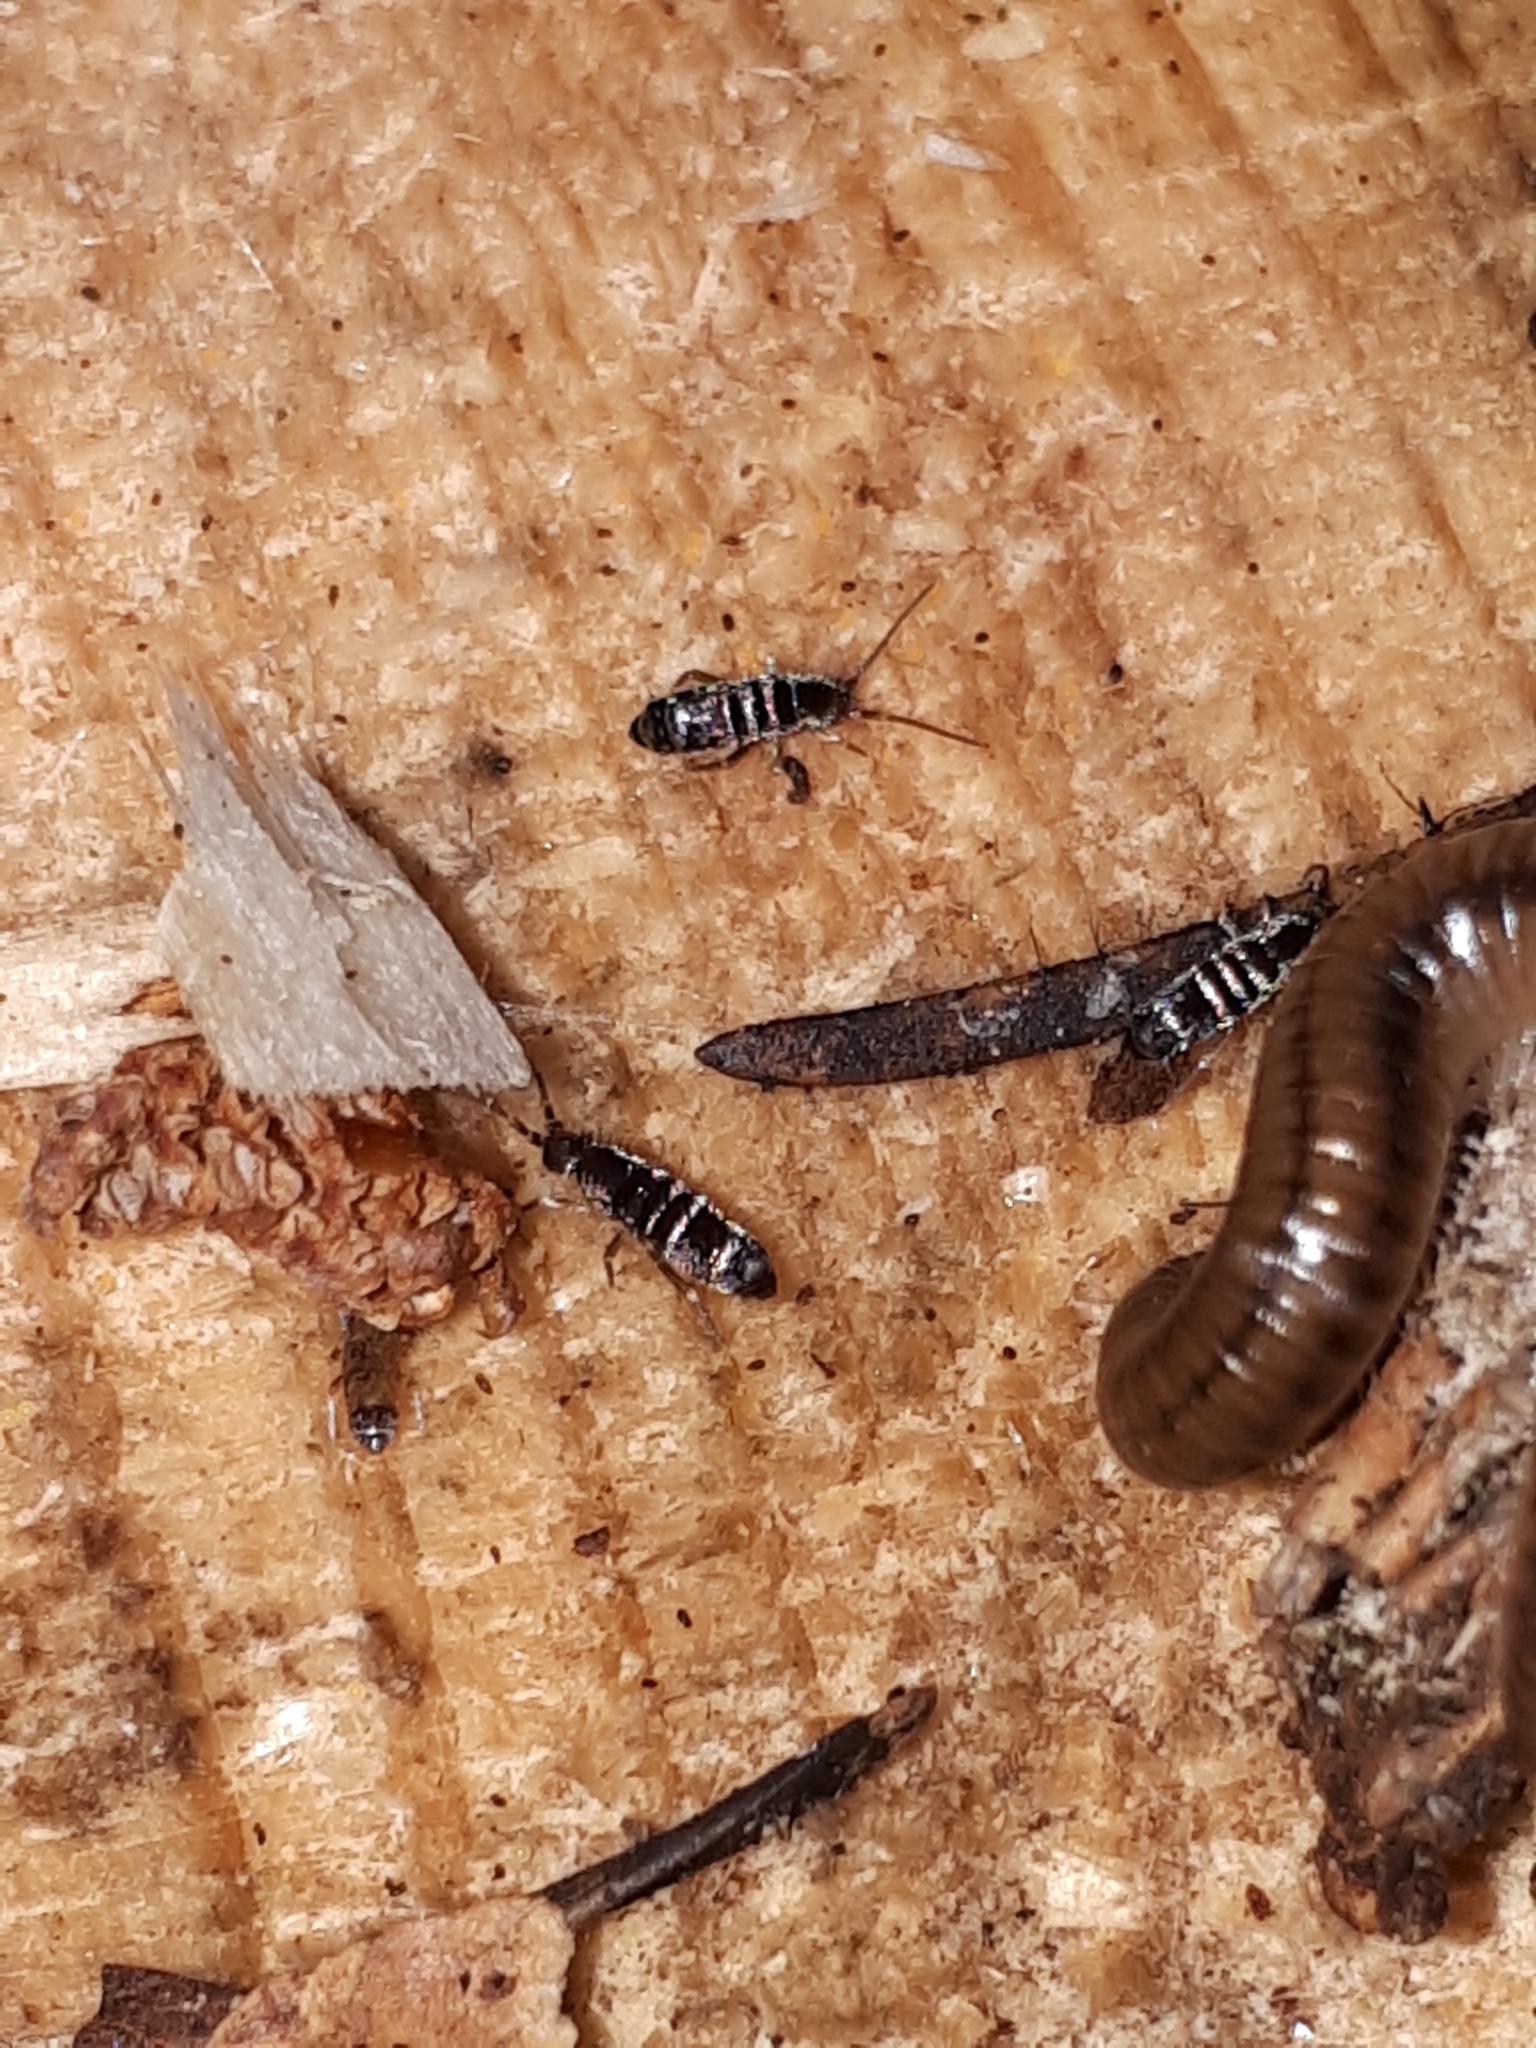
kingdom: Animalia
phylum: Arthropoda
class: Collembola
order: Entomobryomorpha
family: Tomoceridae
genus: Tomocerus
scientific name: Tomocerus vulgaris
